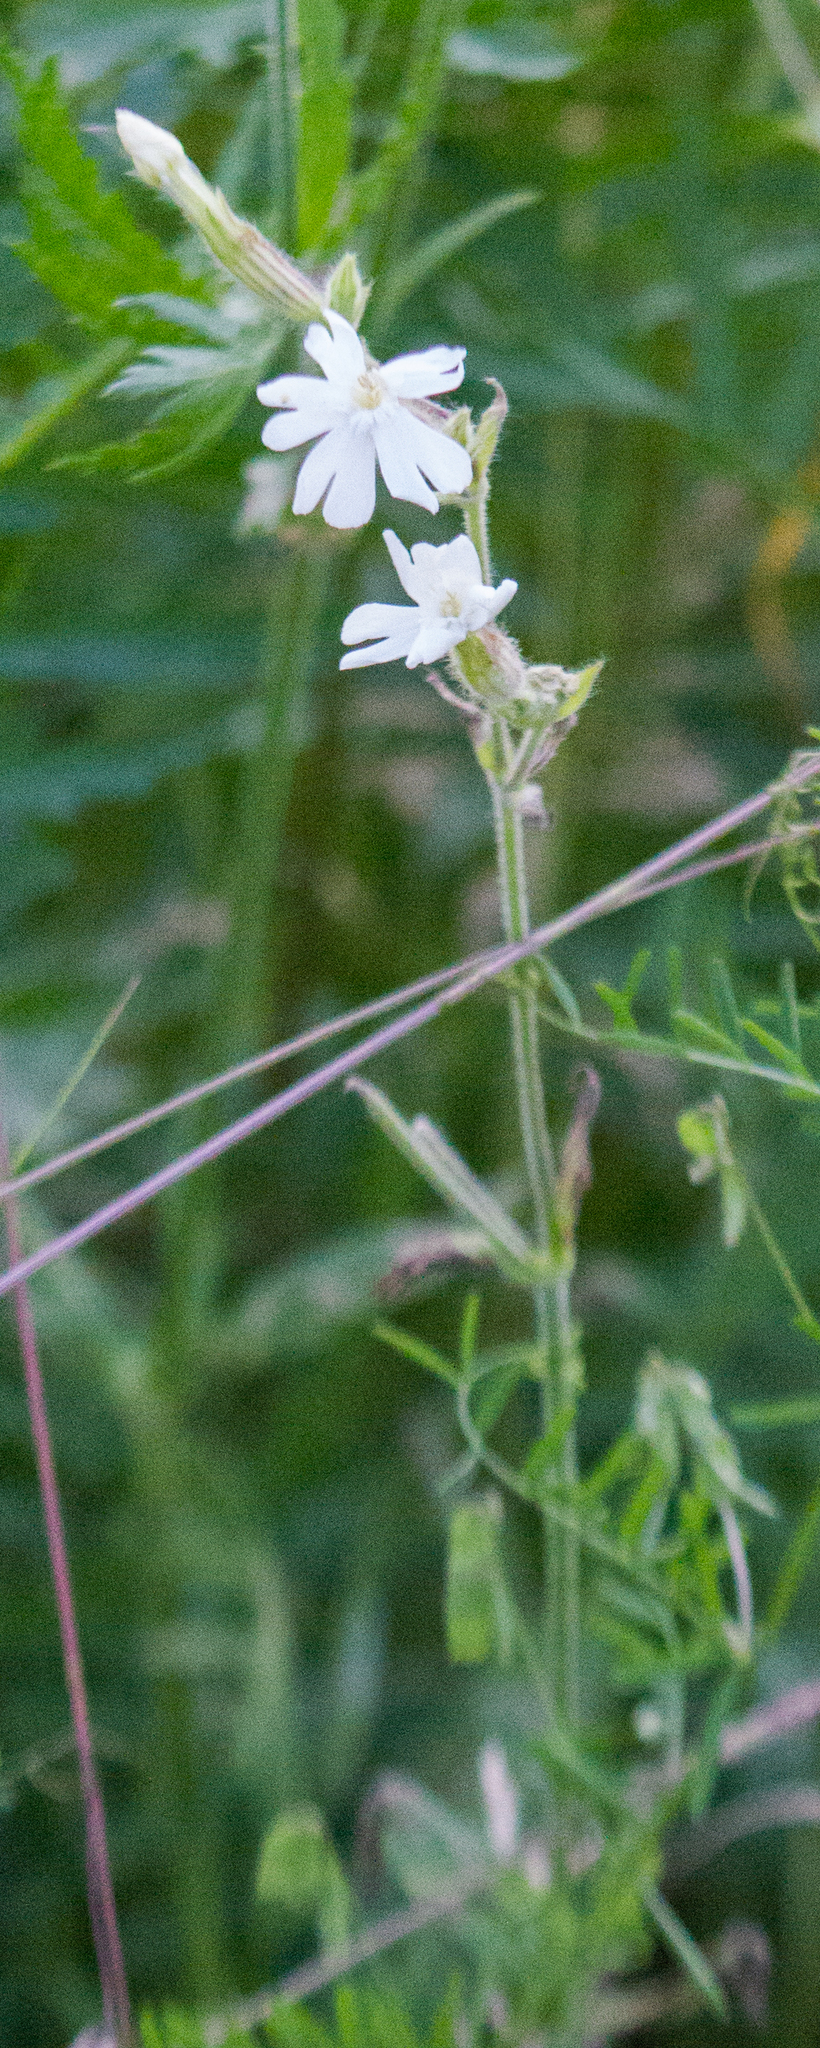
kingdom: Plantae
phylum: Tracheophyta
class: Magnoliopsida
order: Caryophyllales
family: Caryophyllaceae
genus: Silene
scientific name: Silene latifolia
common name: White campion
